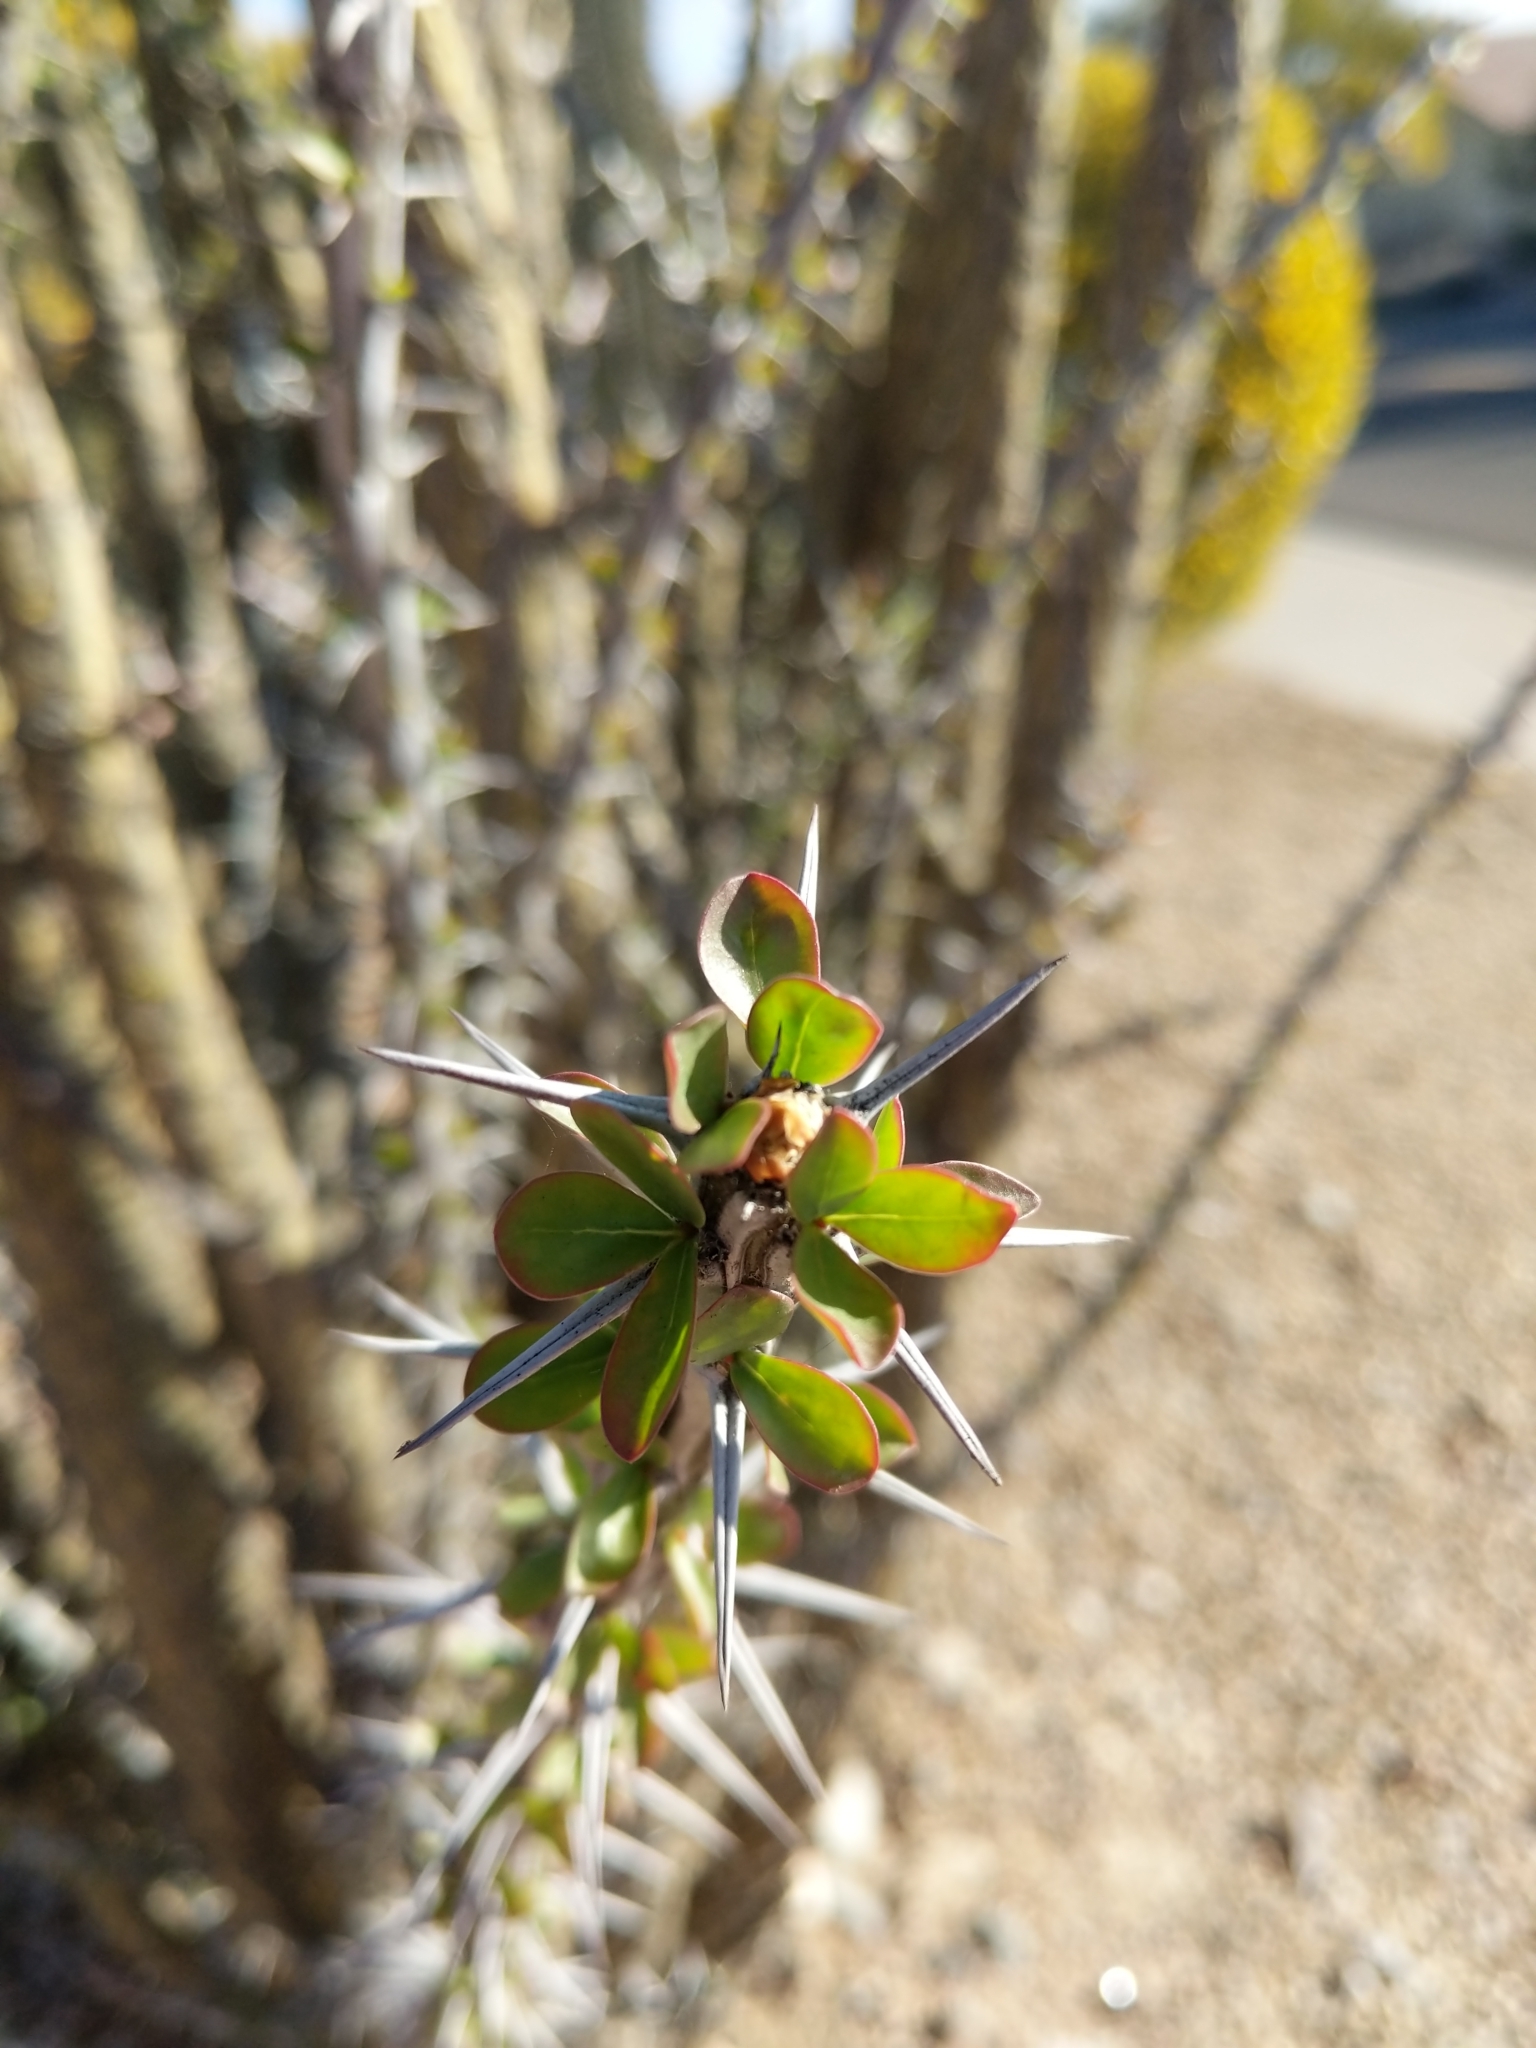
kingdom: Plantae
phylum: Tracheophyta
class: Magnoliopsida
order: Ericales
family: Fouquieriaceae
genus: Fouquieria
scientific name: Fouquieria splendens
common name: Vine-cactus
